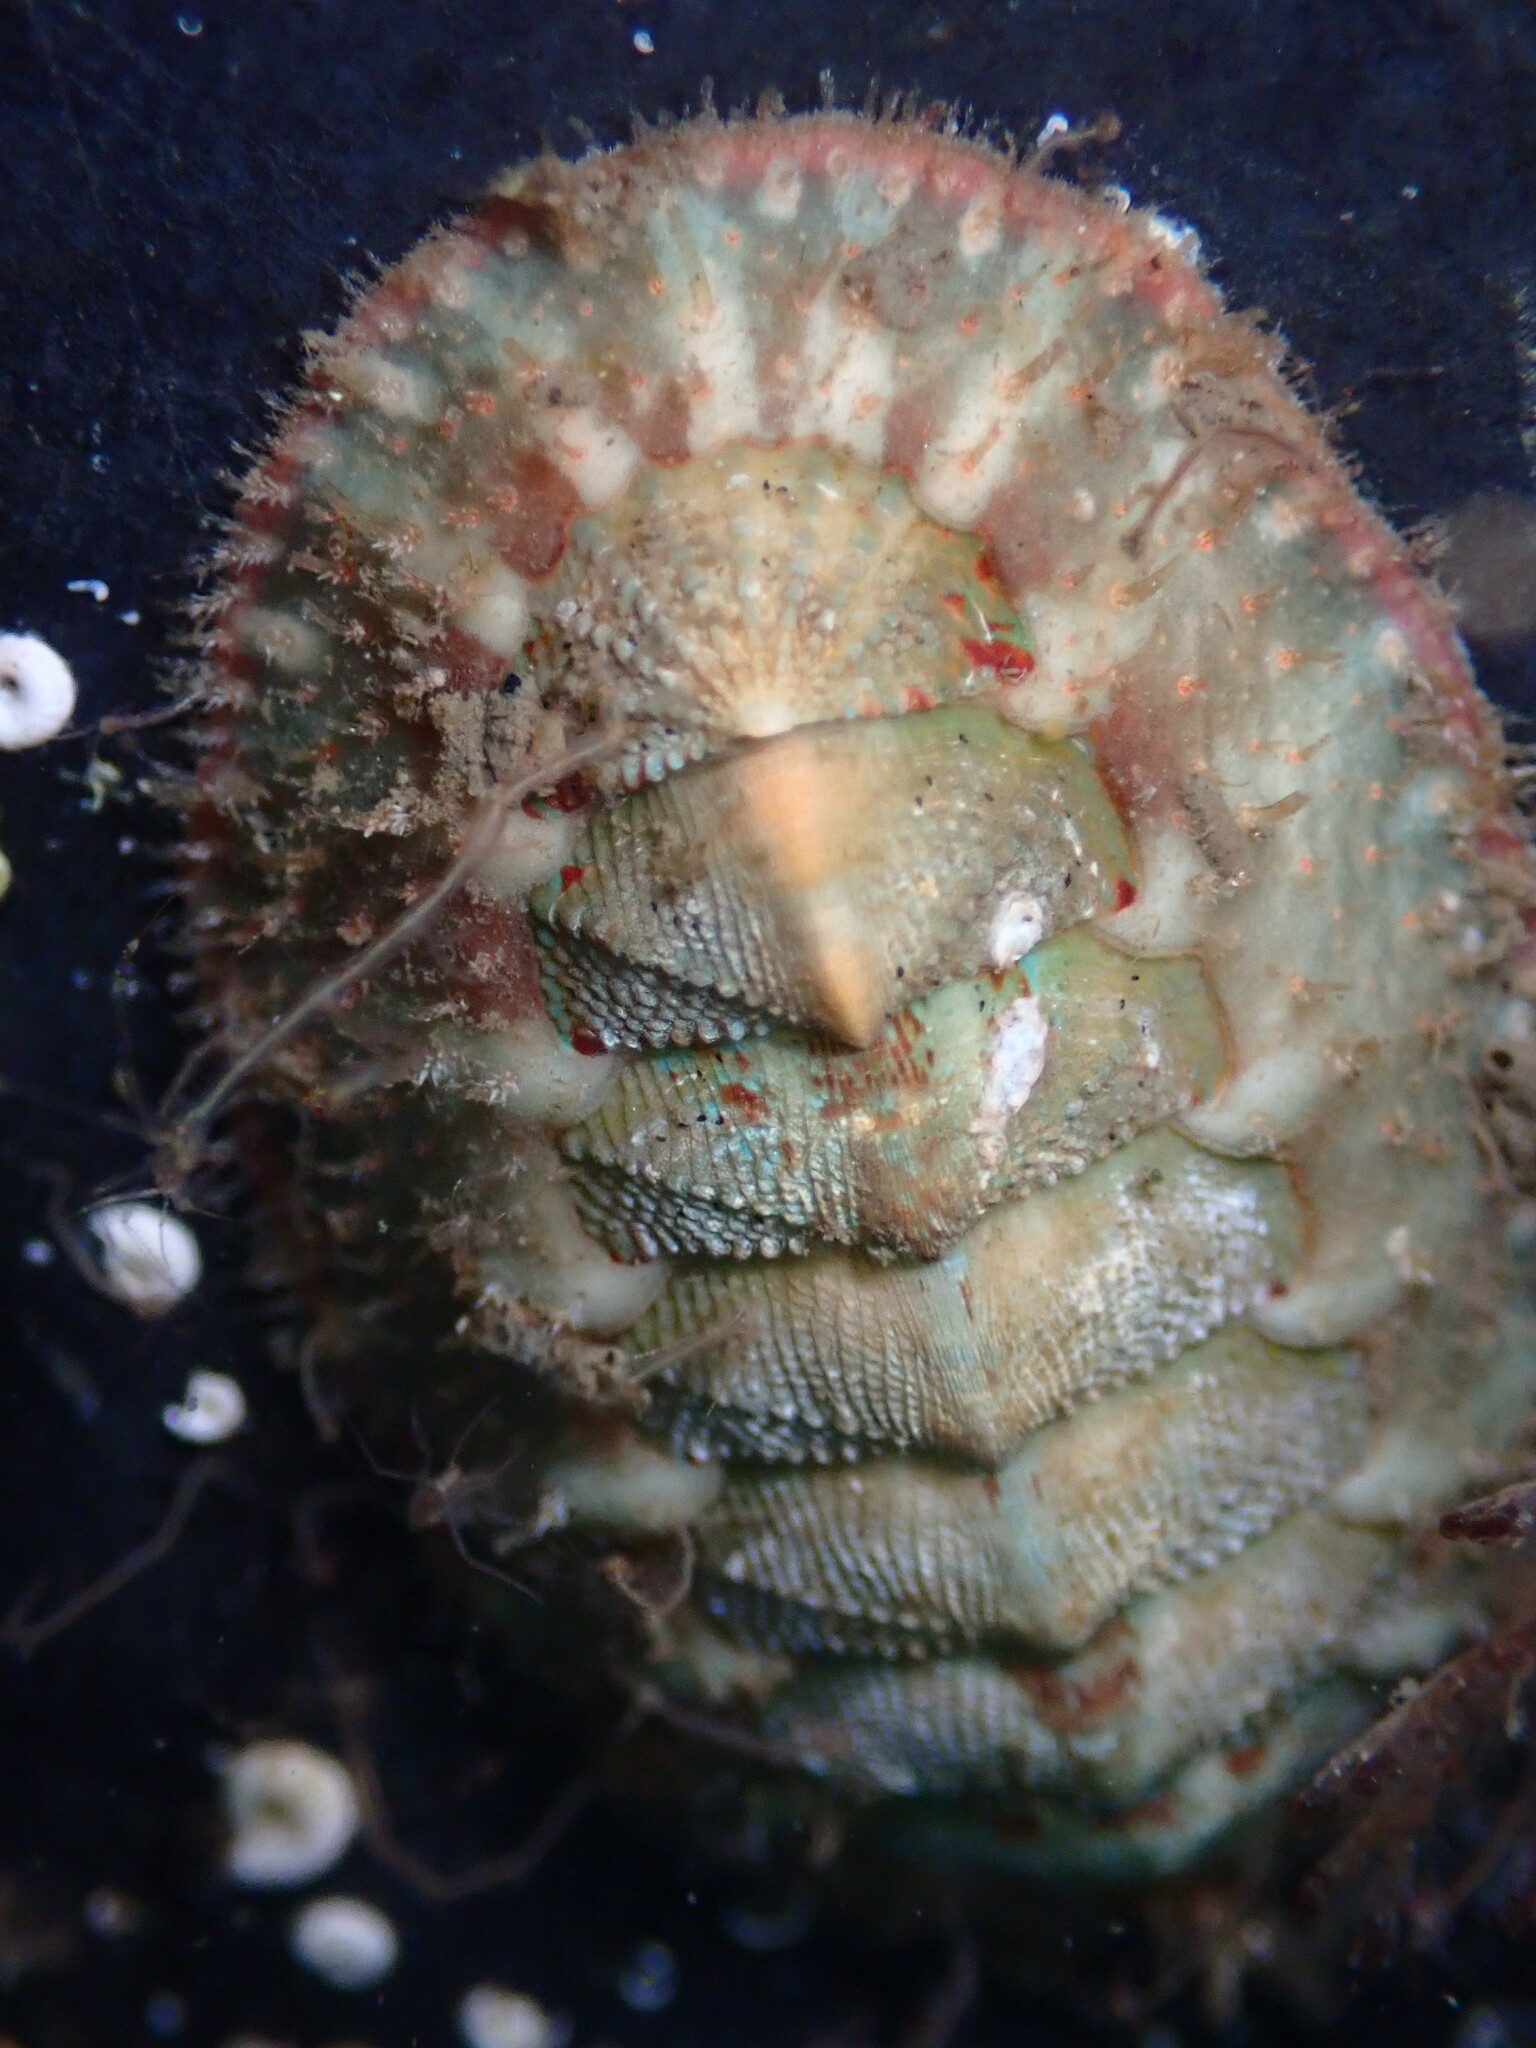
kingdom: Animalia
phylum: Mollusca
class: Polyplacophora
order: Chitonida
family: Mopaliidae
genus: Mopalia
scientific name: Mopalia spectabilis
